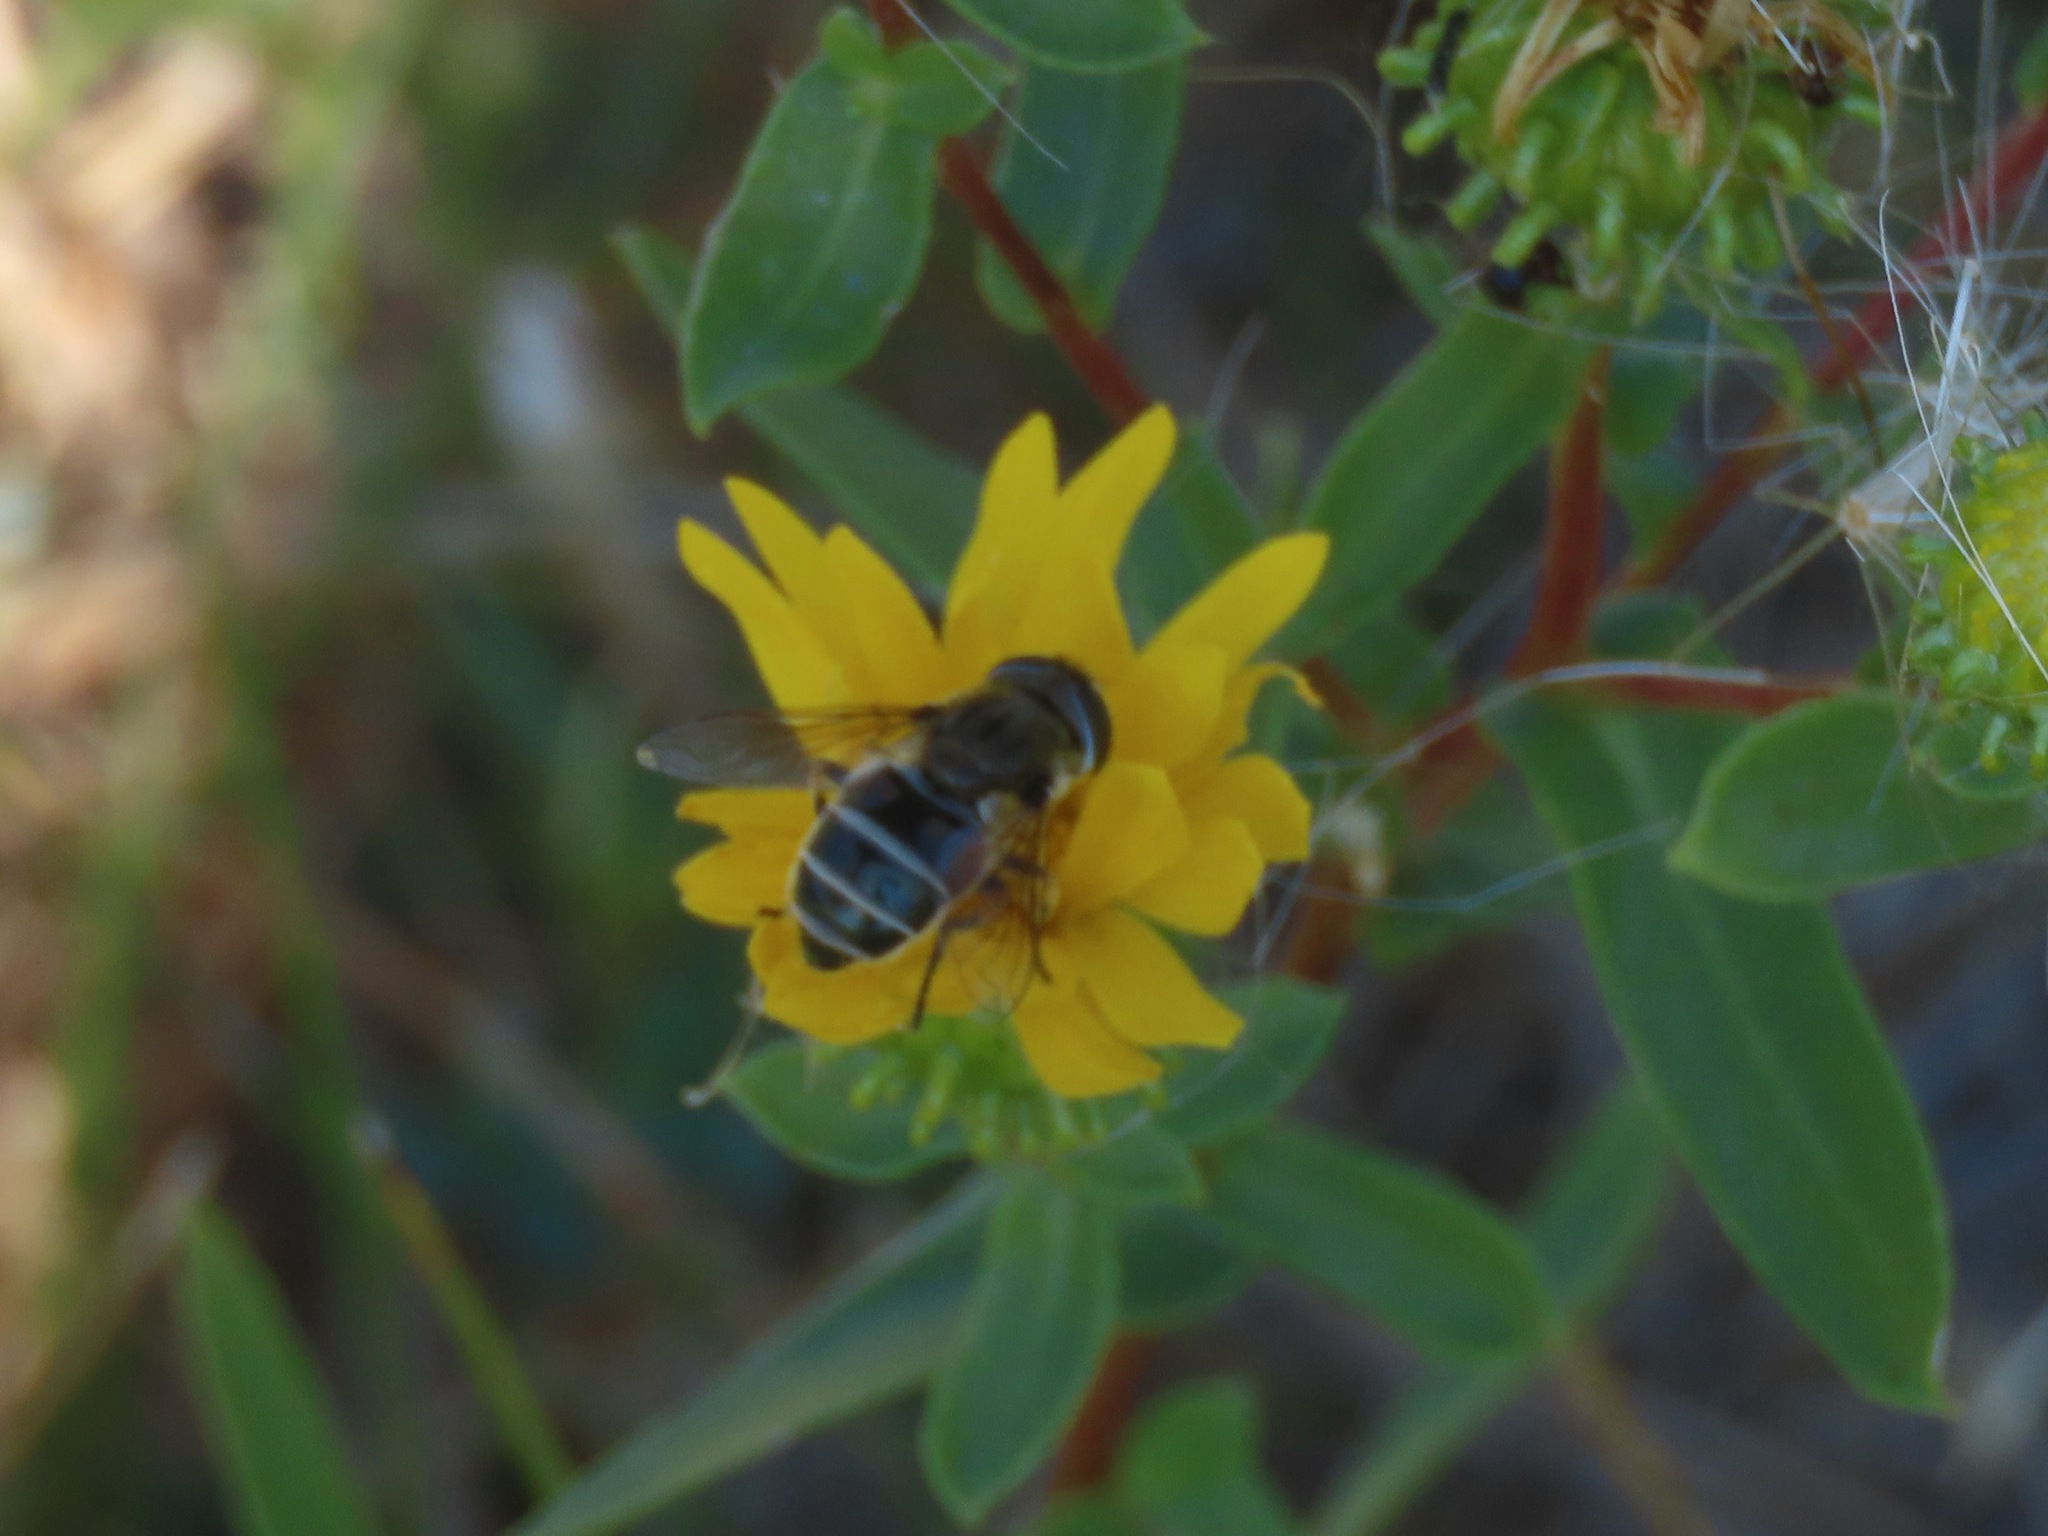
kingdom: Animalia
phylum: Arthropoda
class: Insecta
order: Diptera
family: Syrphidae
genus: Eristalis
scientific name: Eristalis arbustorum
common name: Hover fly
